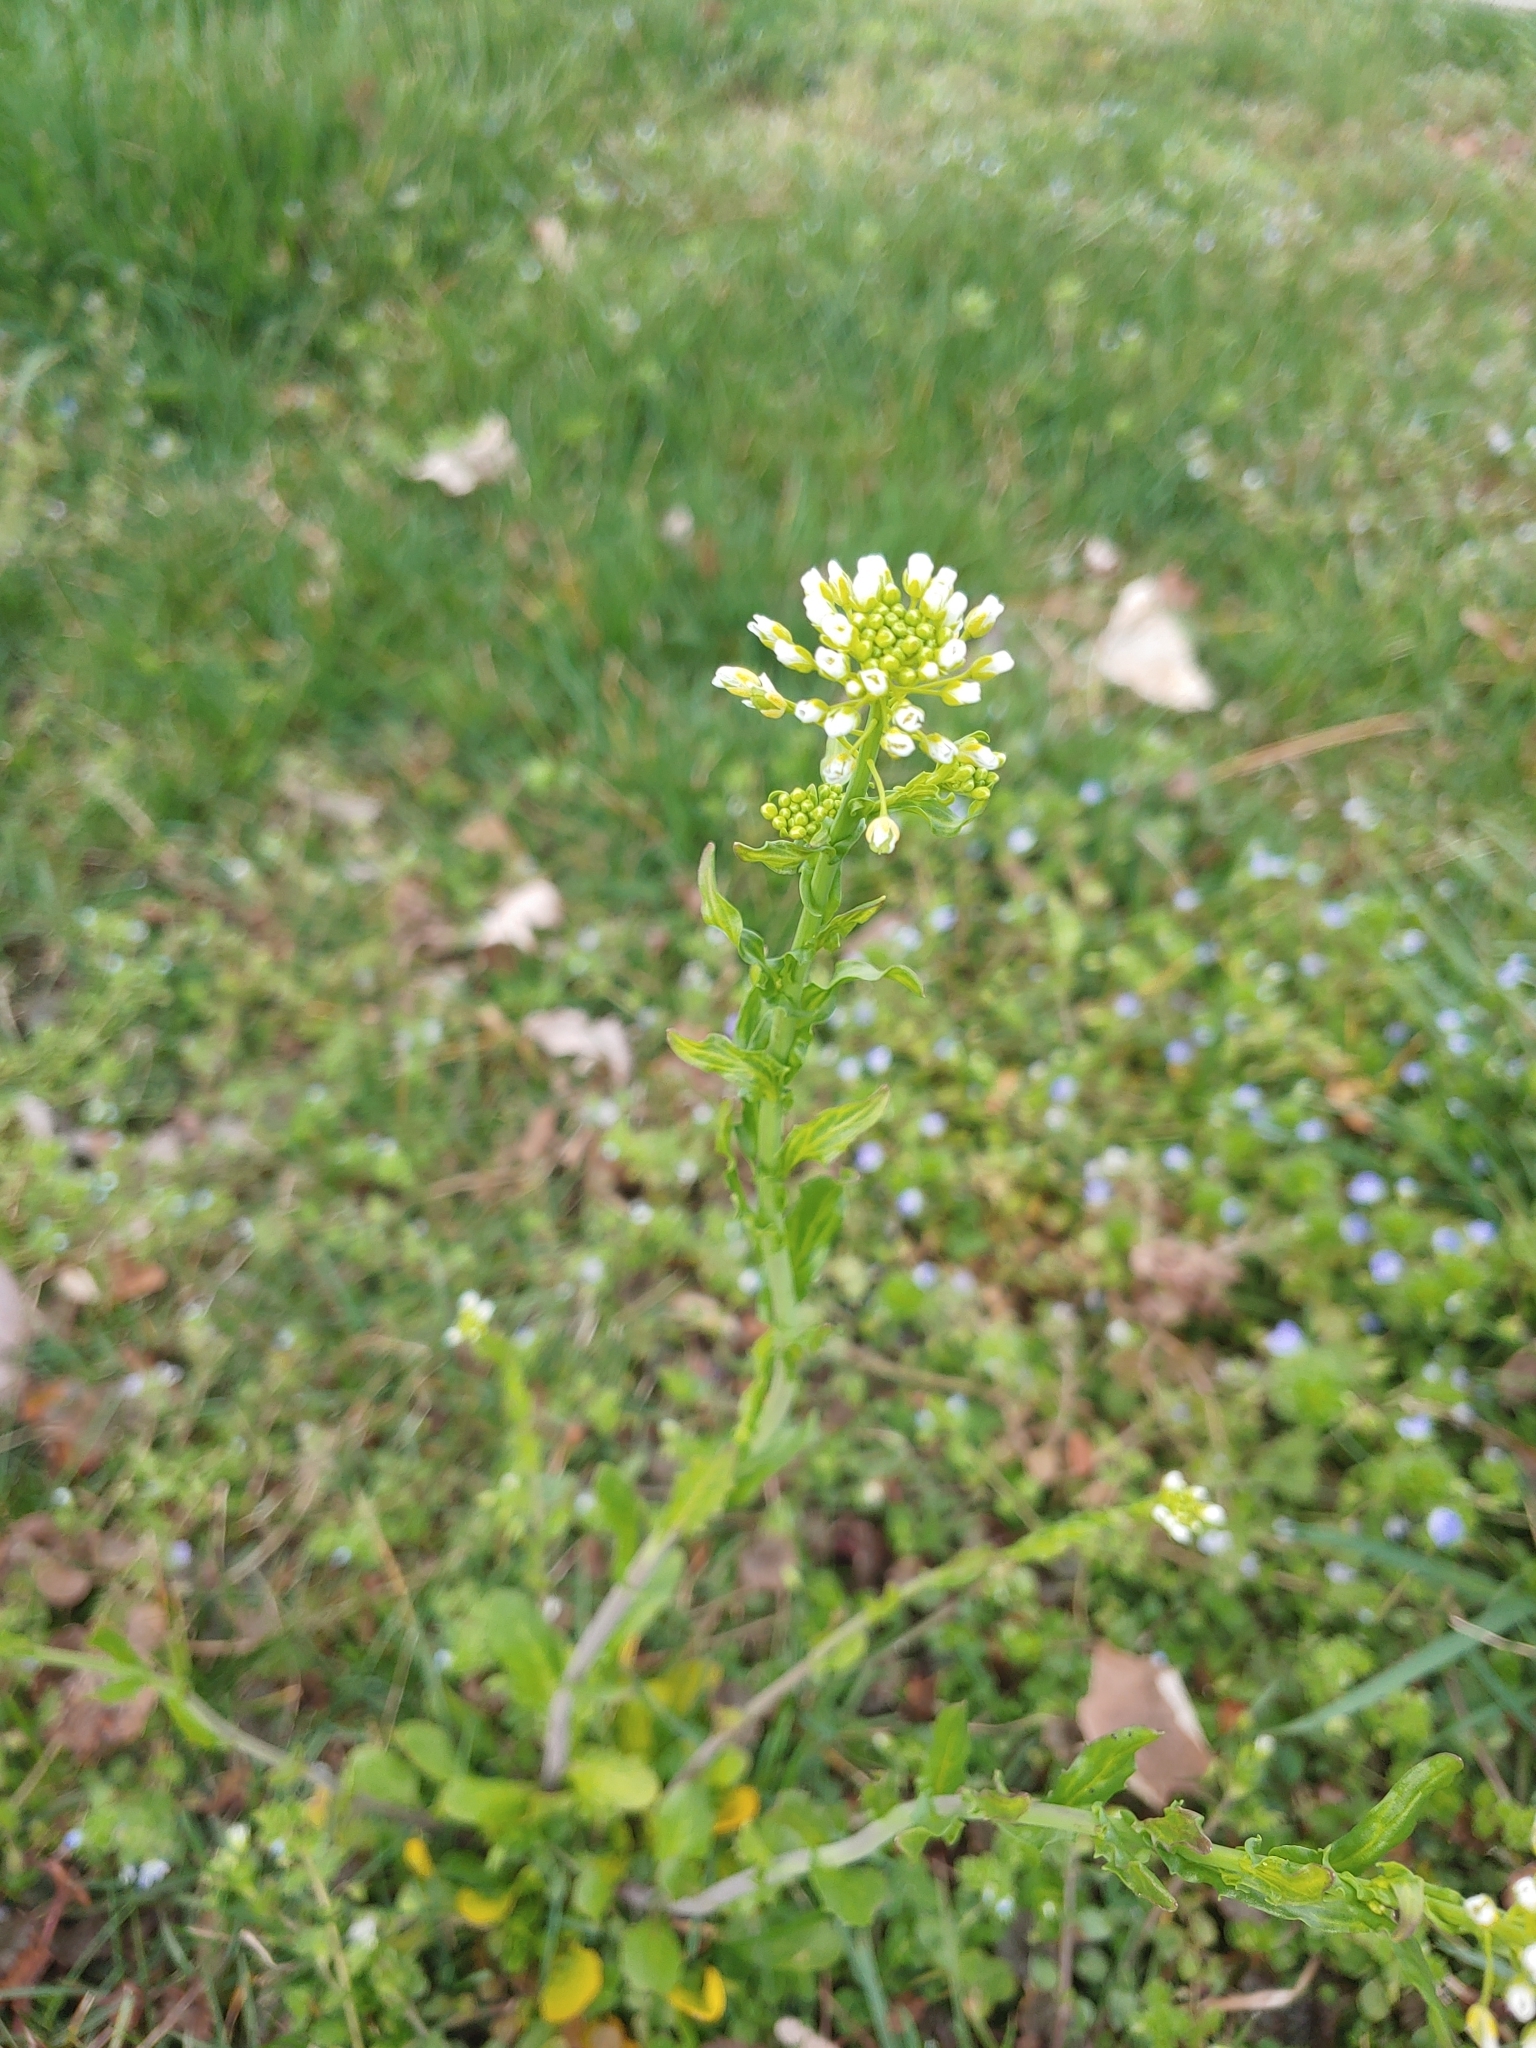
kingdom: Plantae
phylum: Tracheophyta
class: Magnoliopsida
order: Brassicales
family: Brassicaceae
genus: Mummenhoffia
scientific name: Mummenhoffia alliacea
